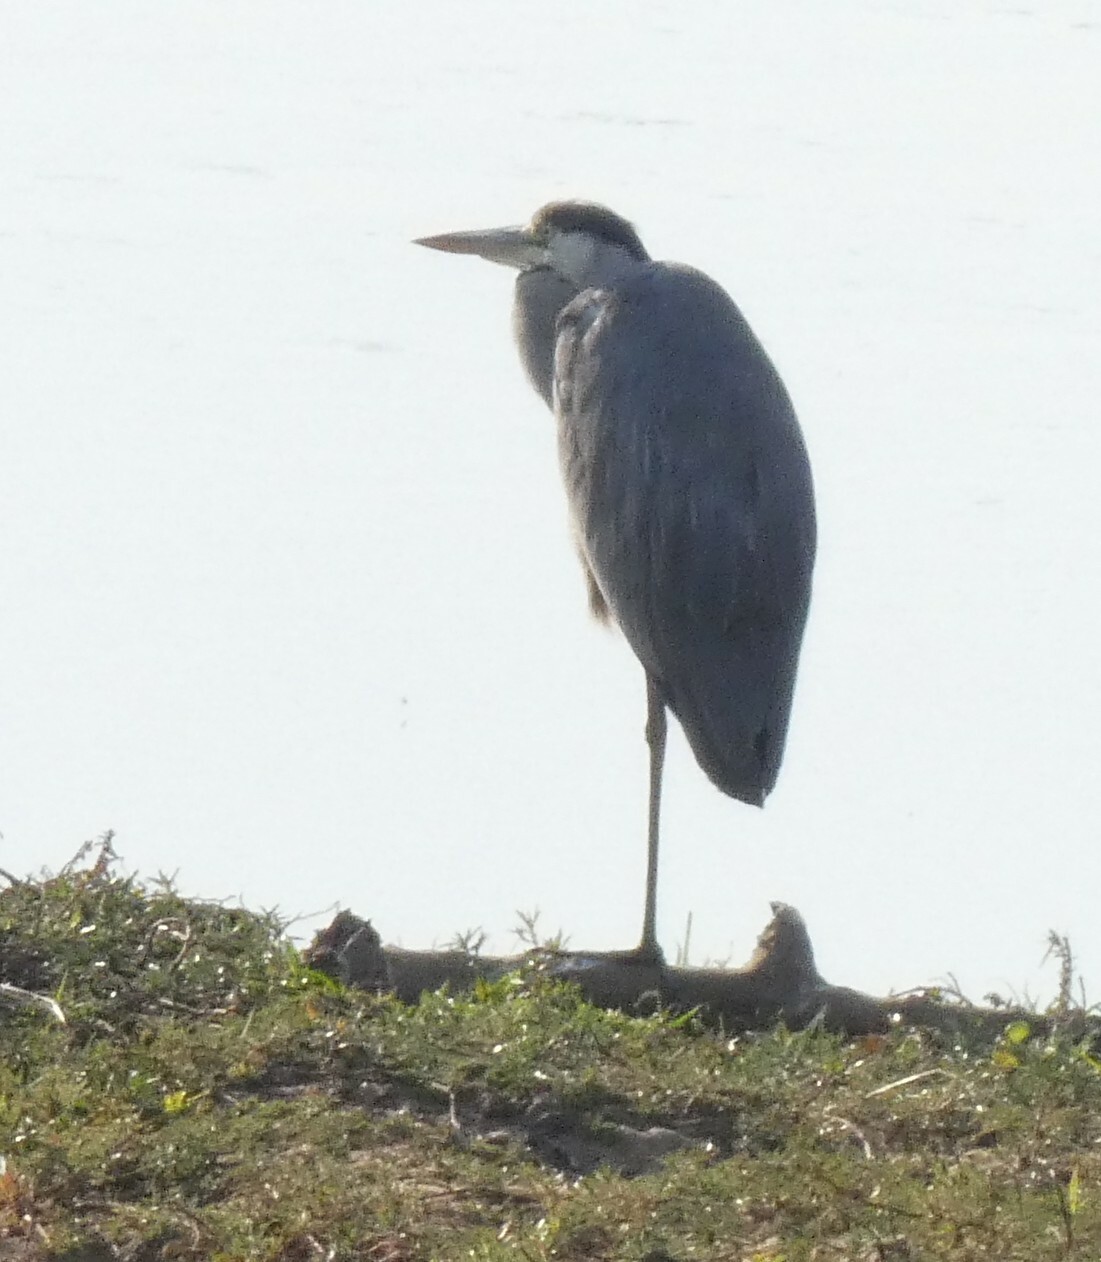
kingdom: Animalia
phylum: Chordata
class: Aves
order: Pelecaniformes
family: Ardeidae
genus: Ardea
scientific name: Ardea cinerea
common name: Grey heron
